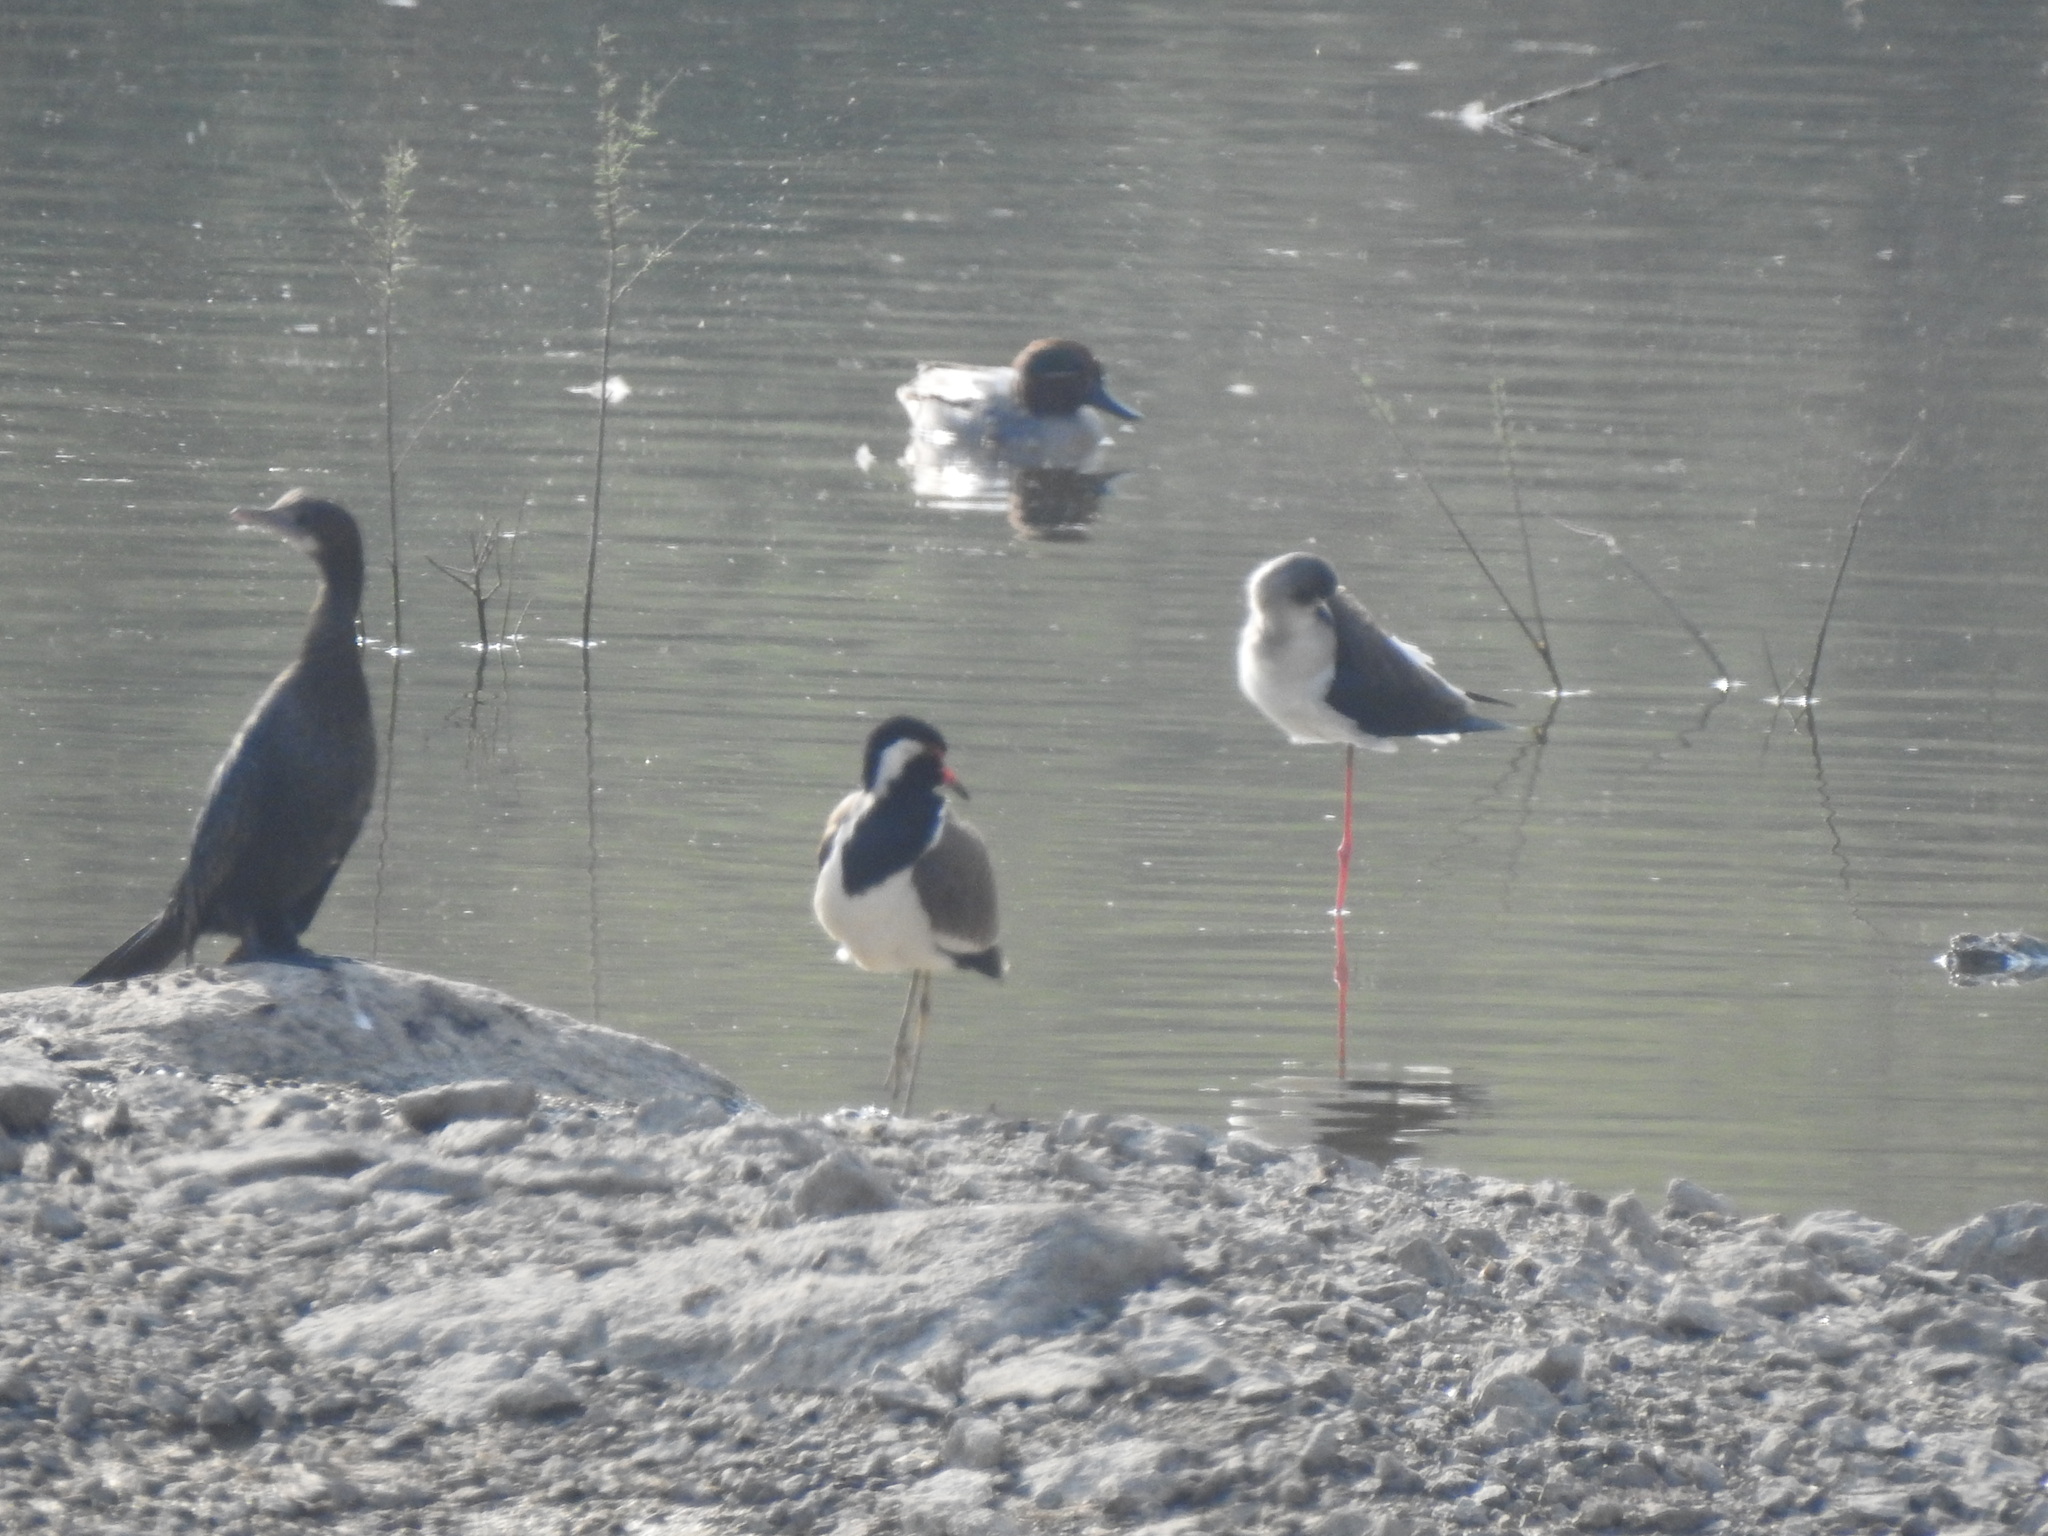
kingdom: Animalia
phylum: Chordata
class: Aves
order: Charadriiformes
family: Charadriidae
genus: Vanellus
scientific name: Vanellus indicus
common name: Red-wattled lapwing
